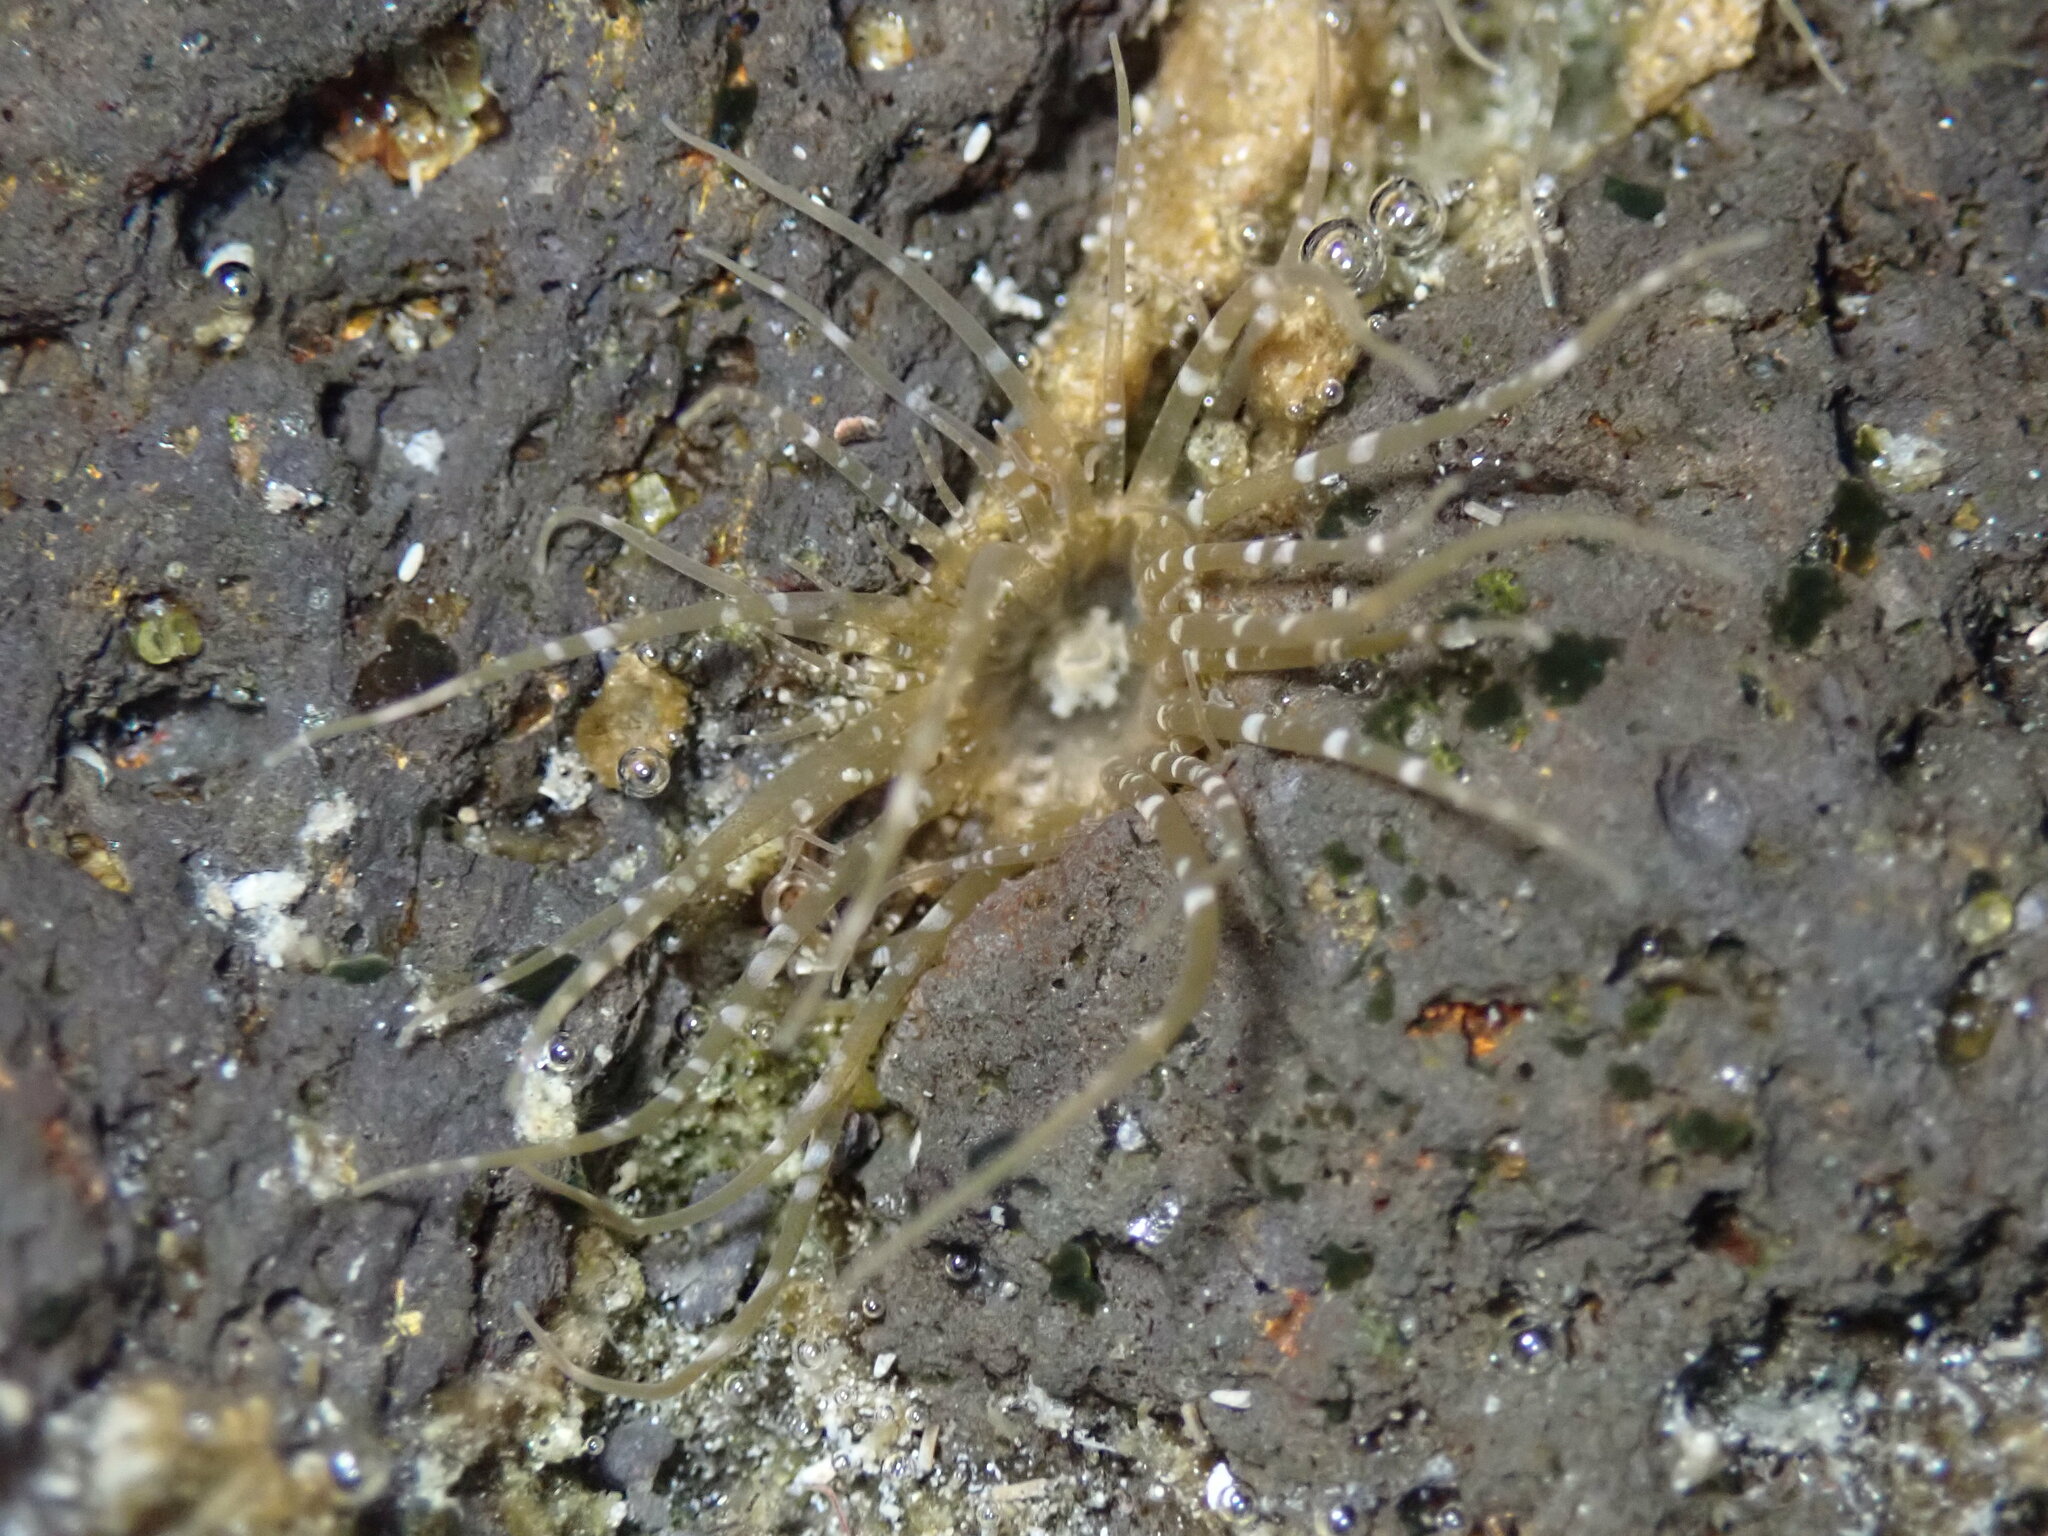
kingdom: Animalia
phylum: Cnidaria
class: Anthozoa
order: Actiniaria
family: Aiptasiidae
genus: Exaiptasia
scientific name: Exaiptasia diaphana
